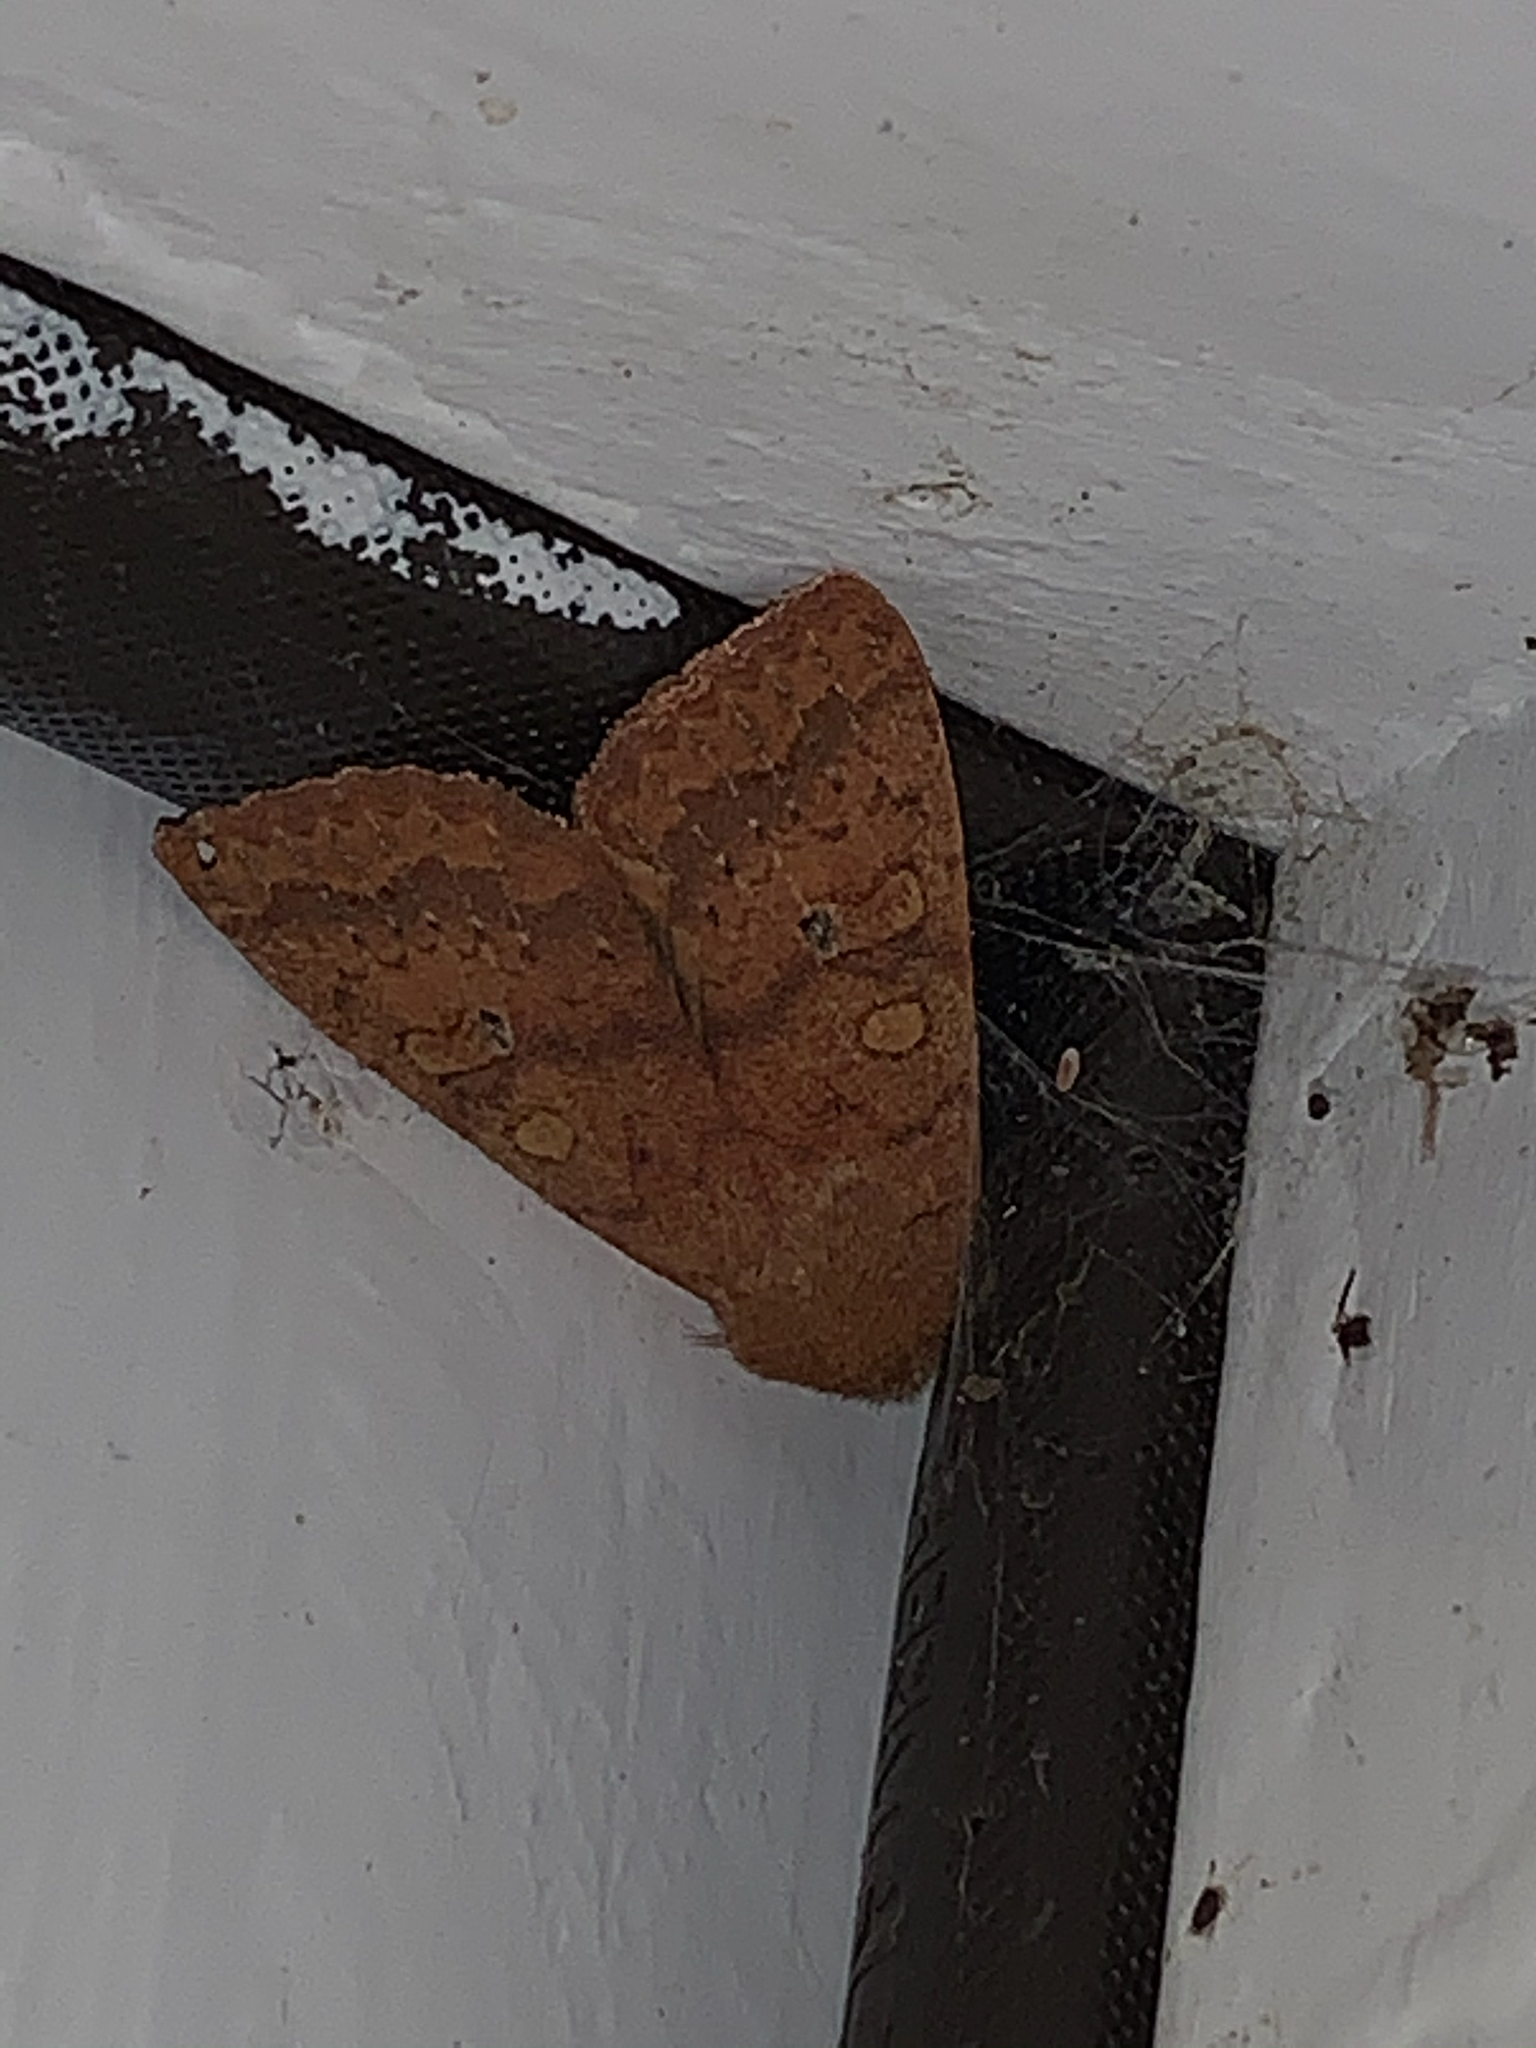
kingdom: Animalia
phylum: Arthropoda
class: Insecta
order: Lepidoptera
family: Noctuidae
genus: Agrochola
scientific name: Agrochola bicolorago
